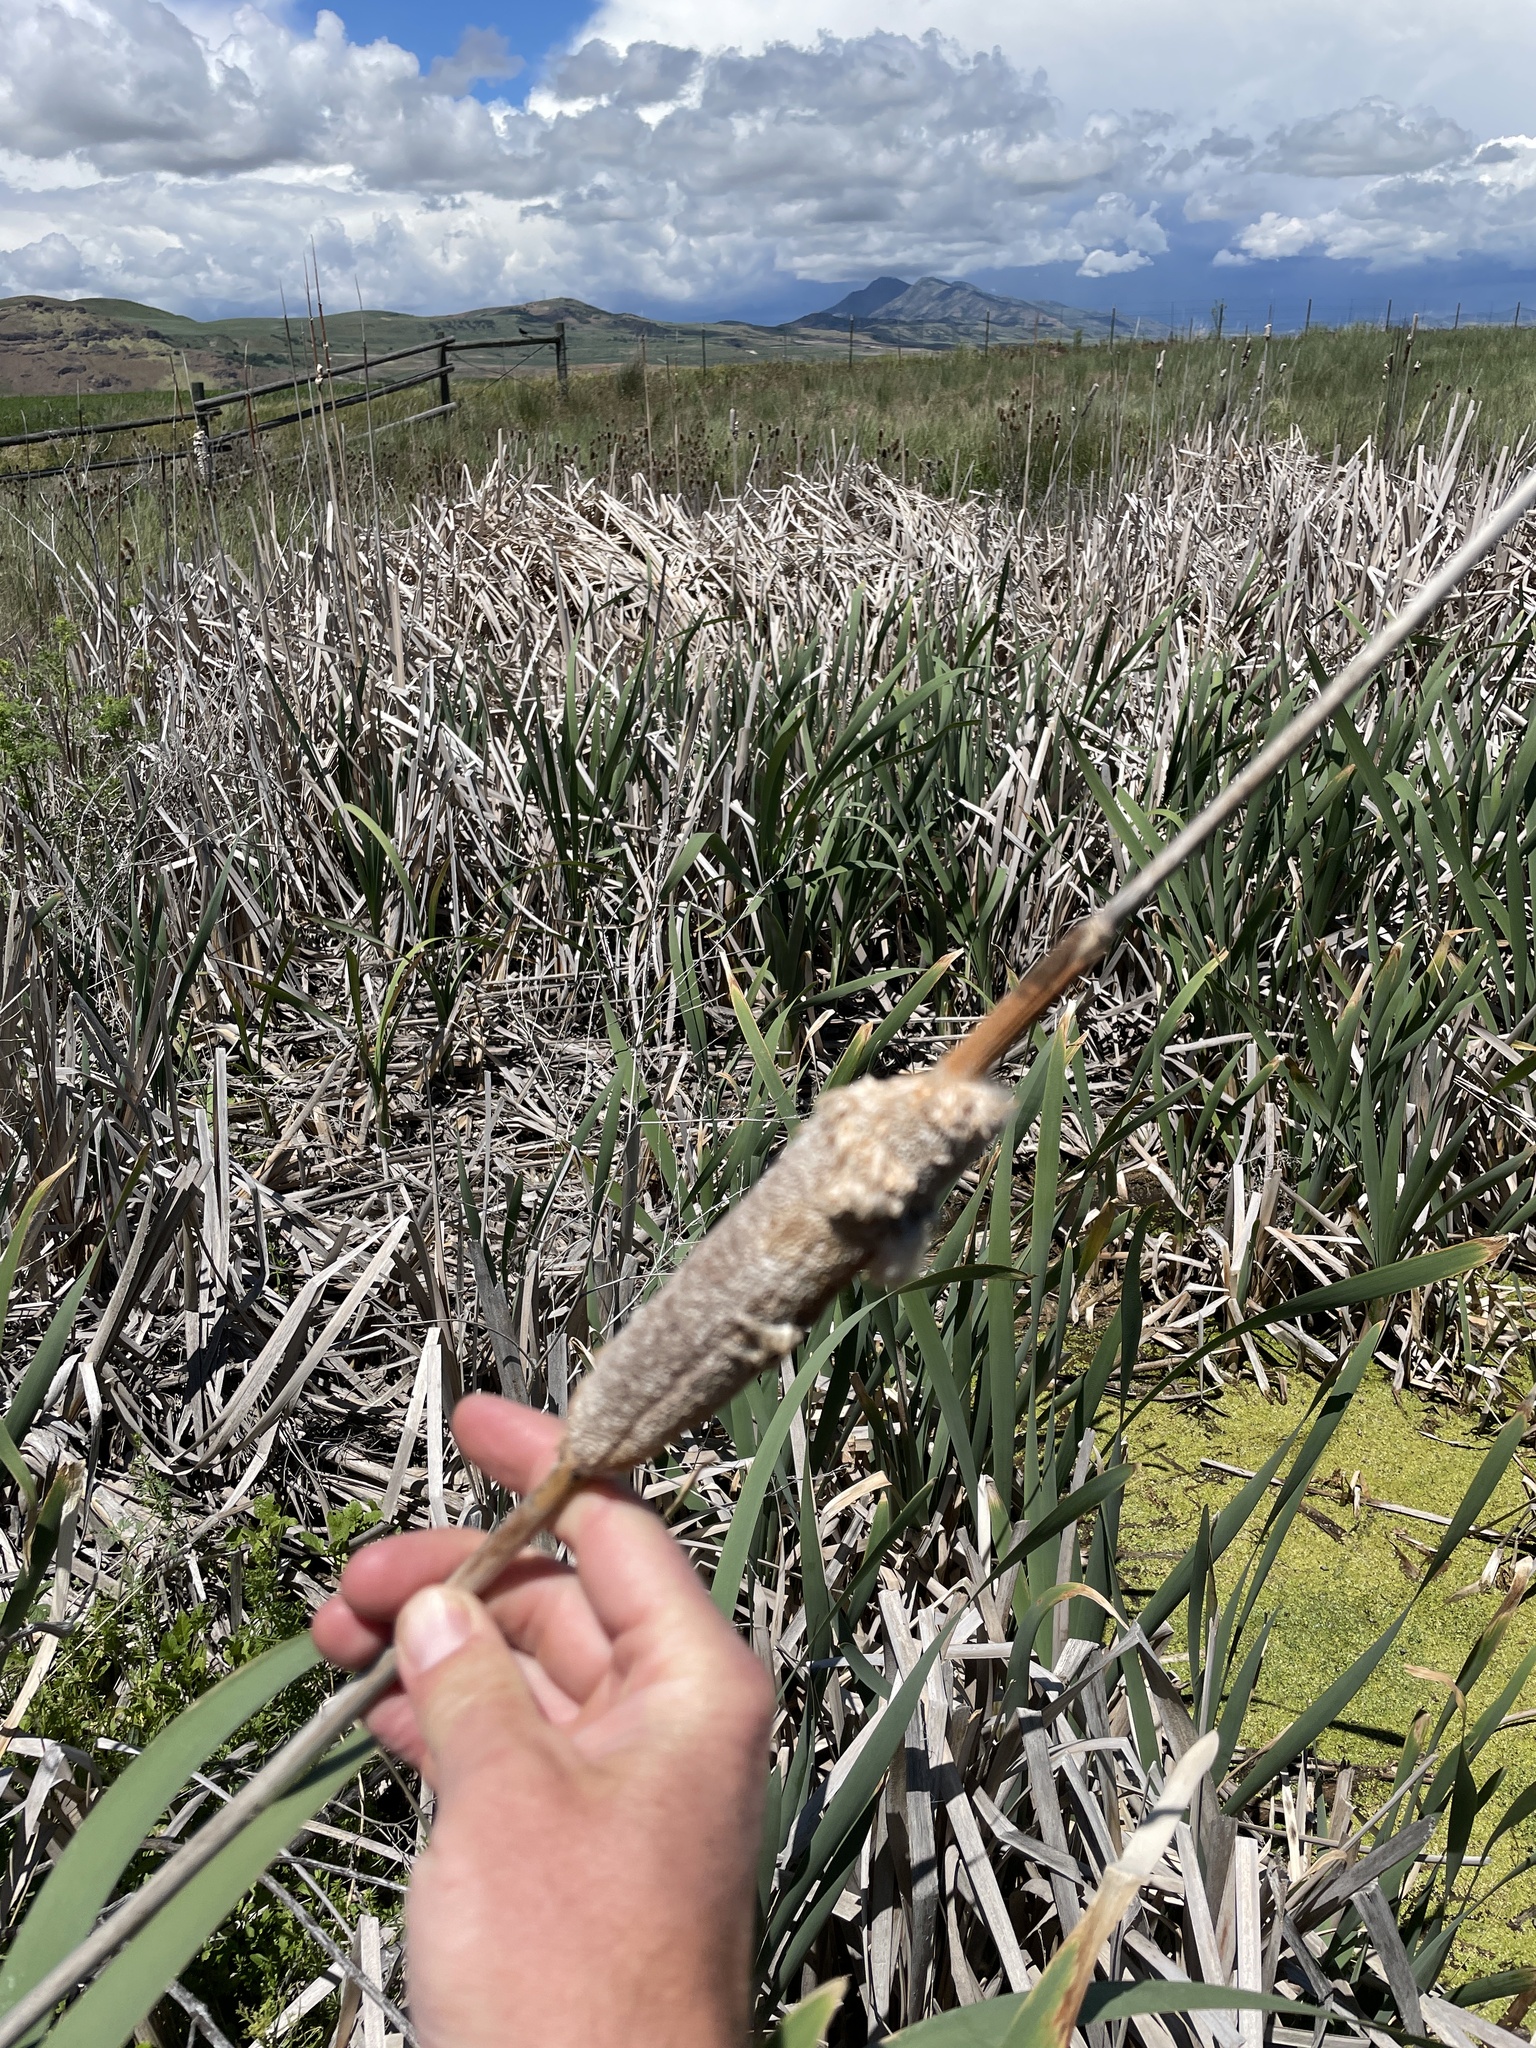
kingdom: Plantae
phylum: Tracheophyta
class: Liliopsida
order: Poales
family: Typhaceae
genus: Typha
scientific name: Typha latifolia
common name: Broadleaf cattail
